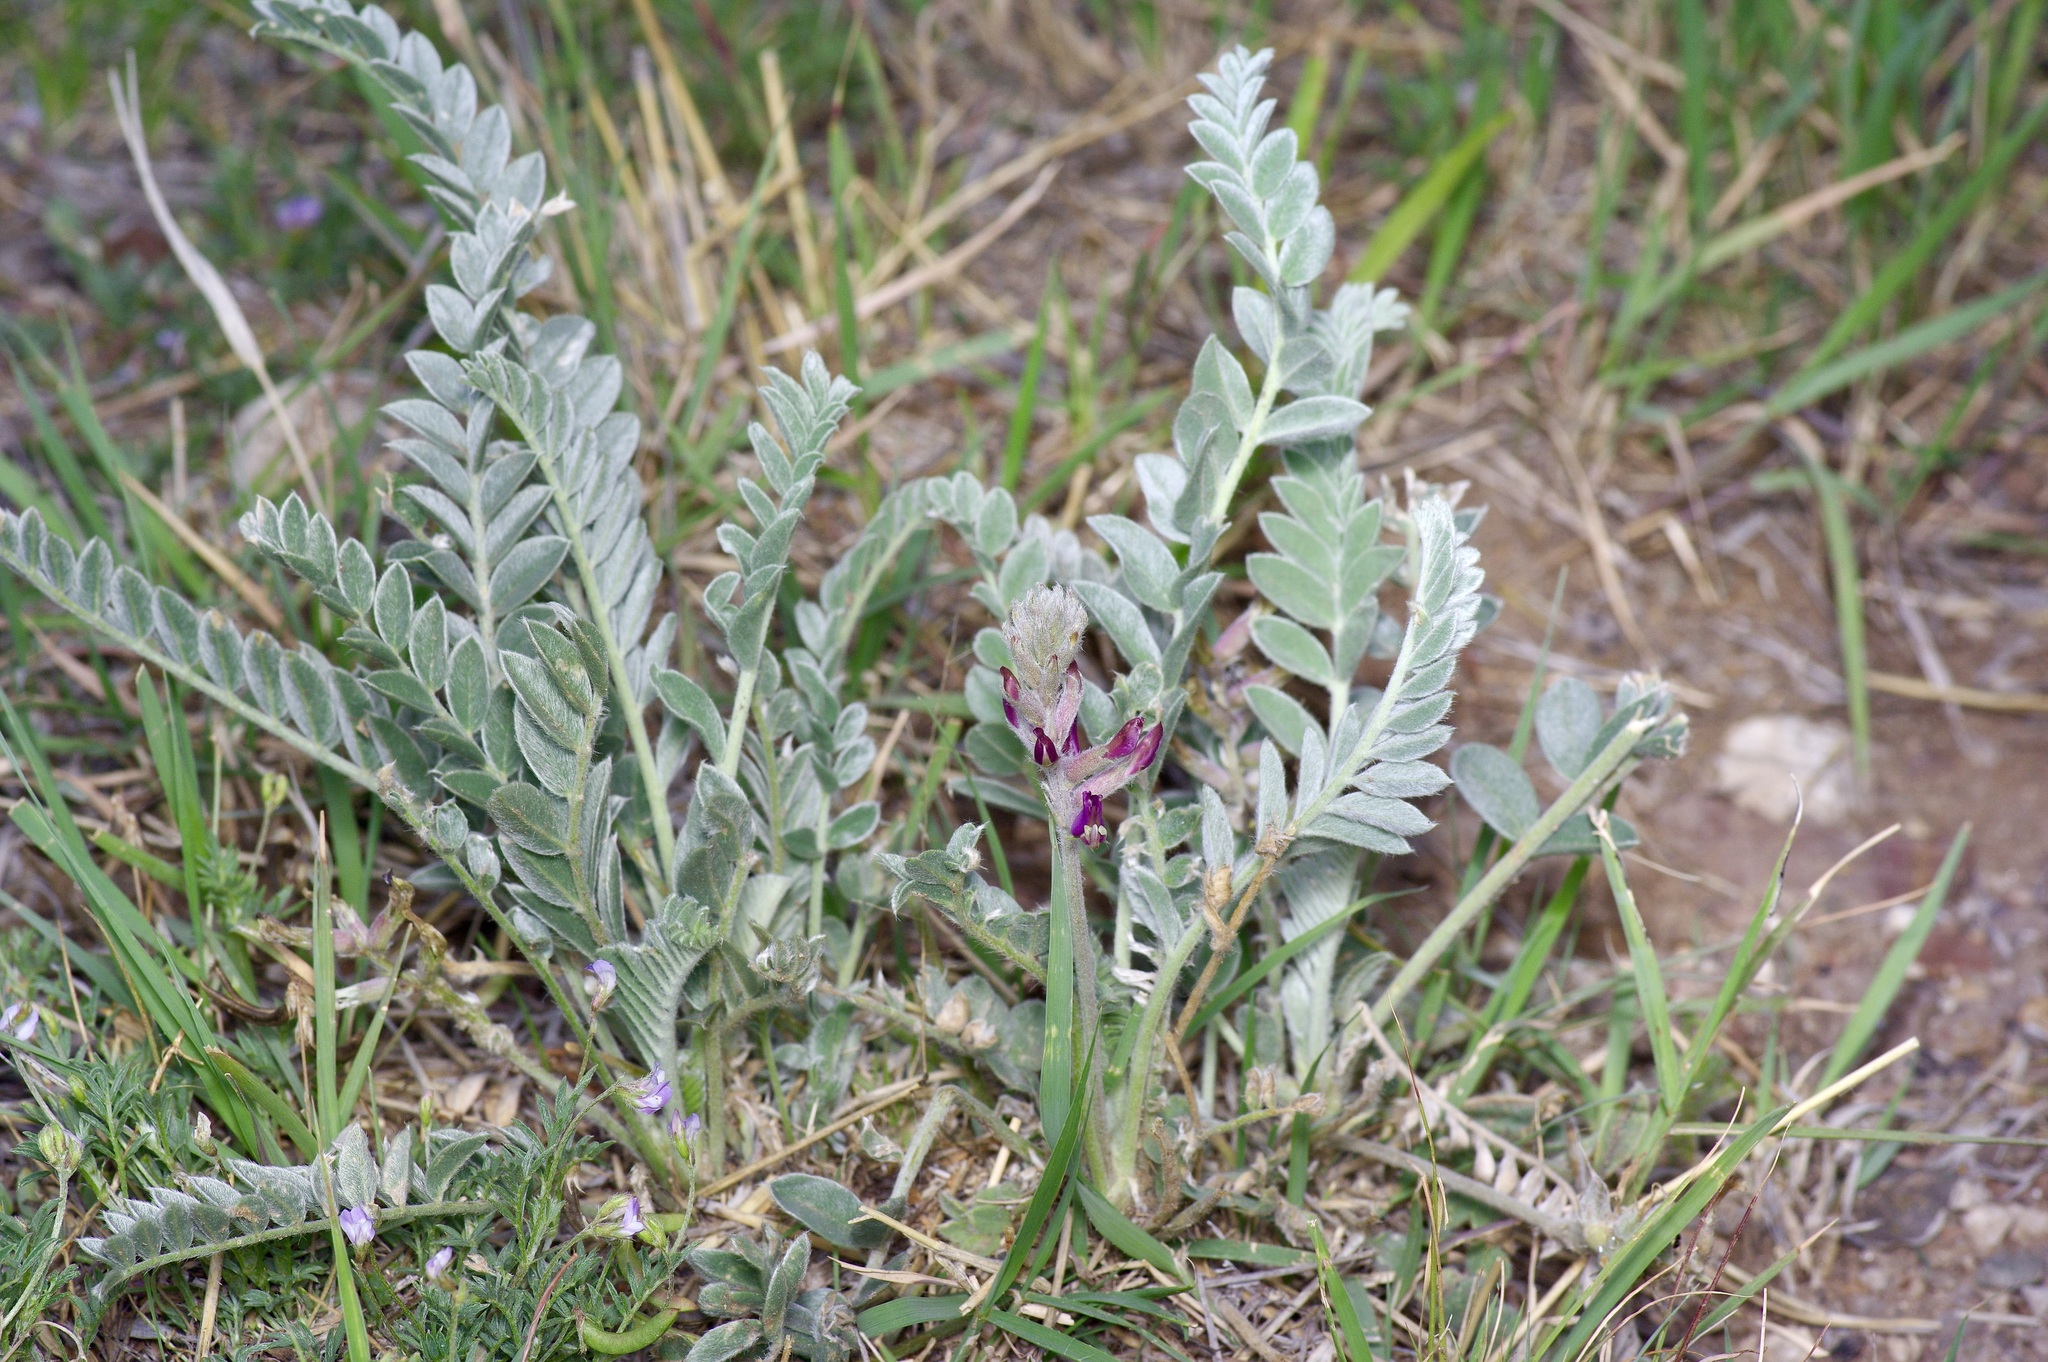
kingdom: Plantae
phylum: Tracheophyta
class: Magnoliopsida
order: Fabales
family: Fabaceae
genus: Astragalus
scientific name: Astragalus mollissimus
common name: Woolly locoweed
